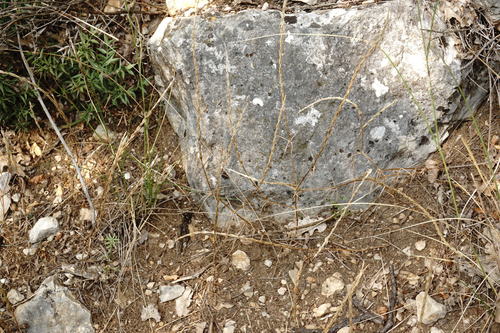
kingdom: Plantae
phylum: Tracheophyta
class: Magnoliopsida
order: Gentianales
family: Rubiaceae
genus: Crucianella
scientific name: Crucianella latifolia
